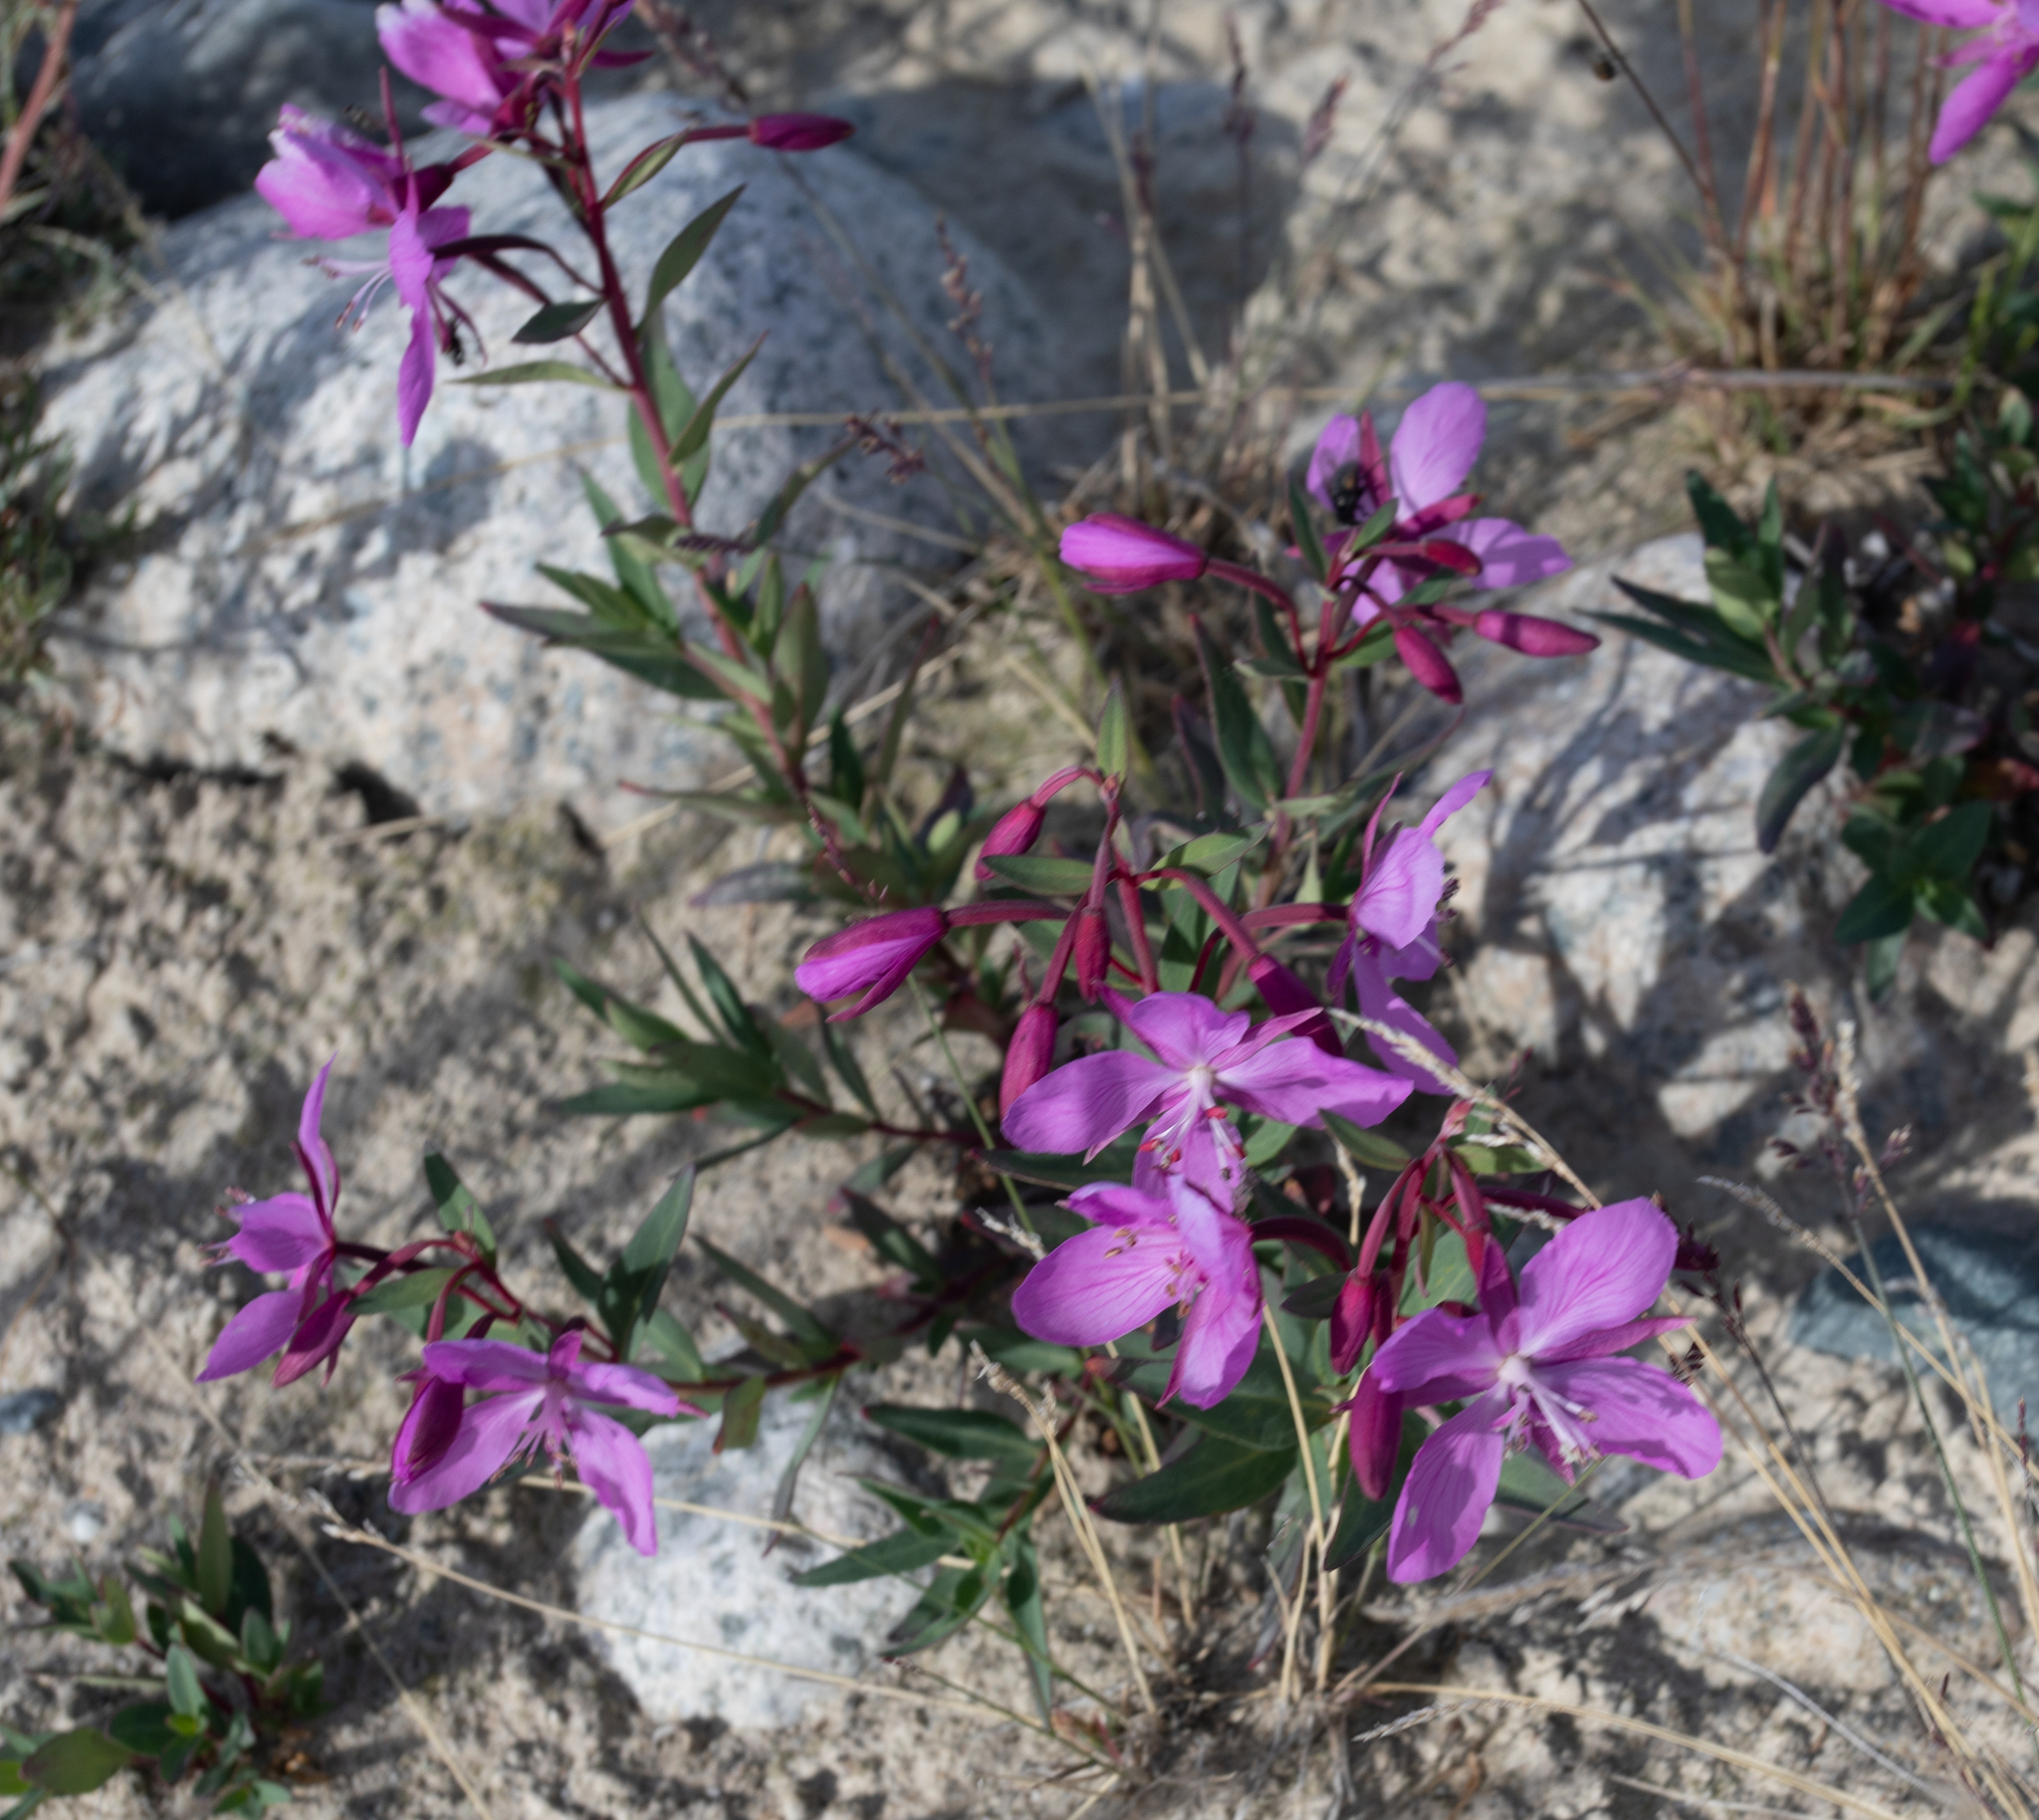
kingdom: Plantae
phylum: Tracheophyta
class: Magnoliopsida
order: Myrtales
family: Onagraceae
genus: Chamaenerion
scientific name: Chamaenerion latifolium
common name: Dwarf fireweed
